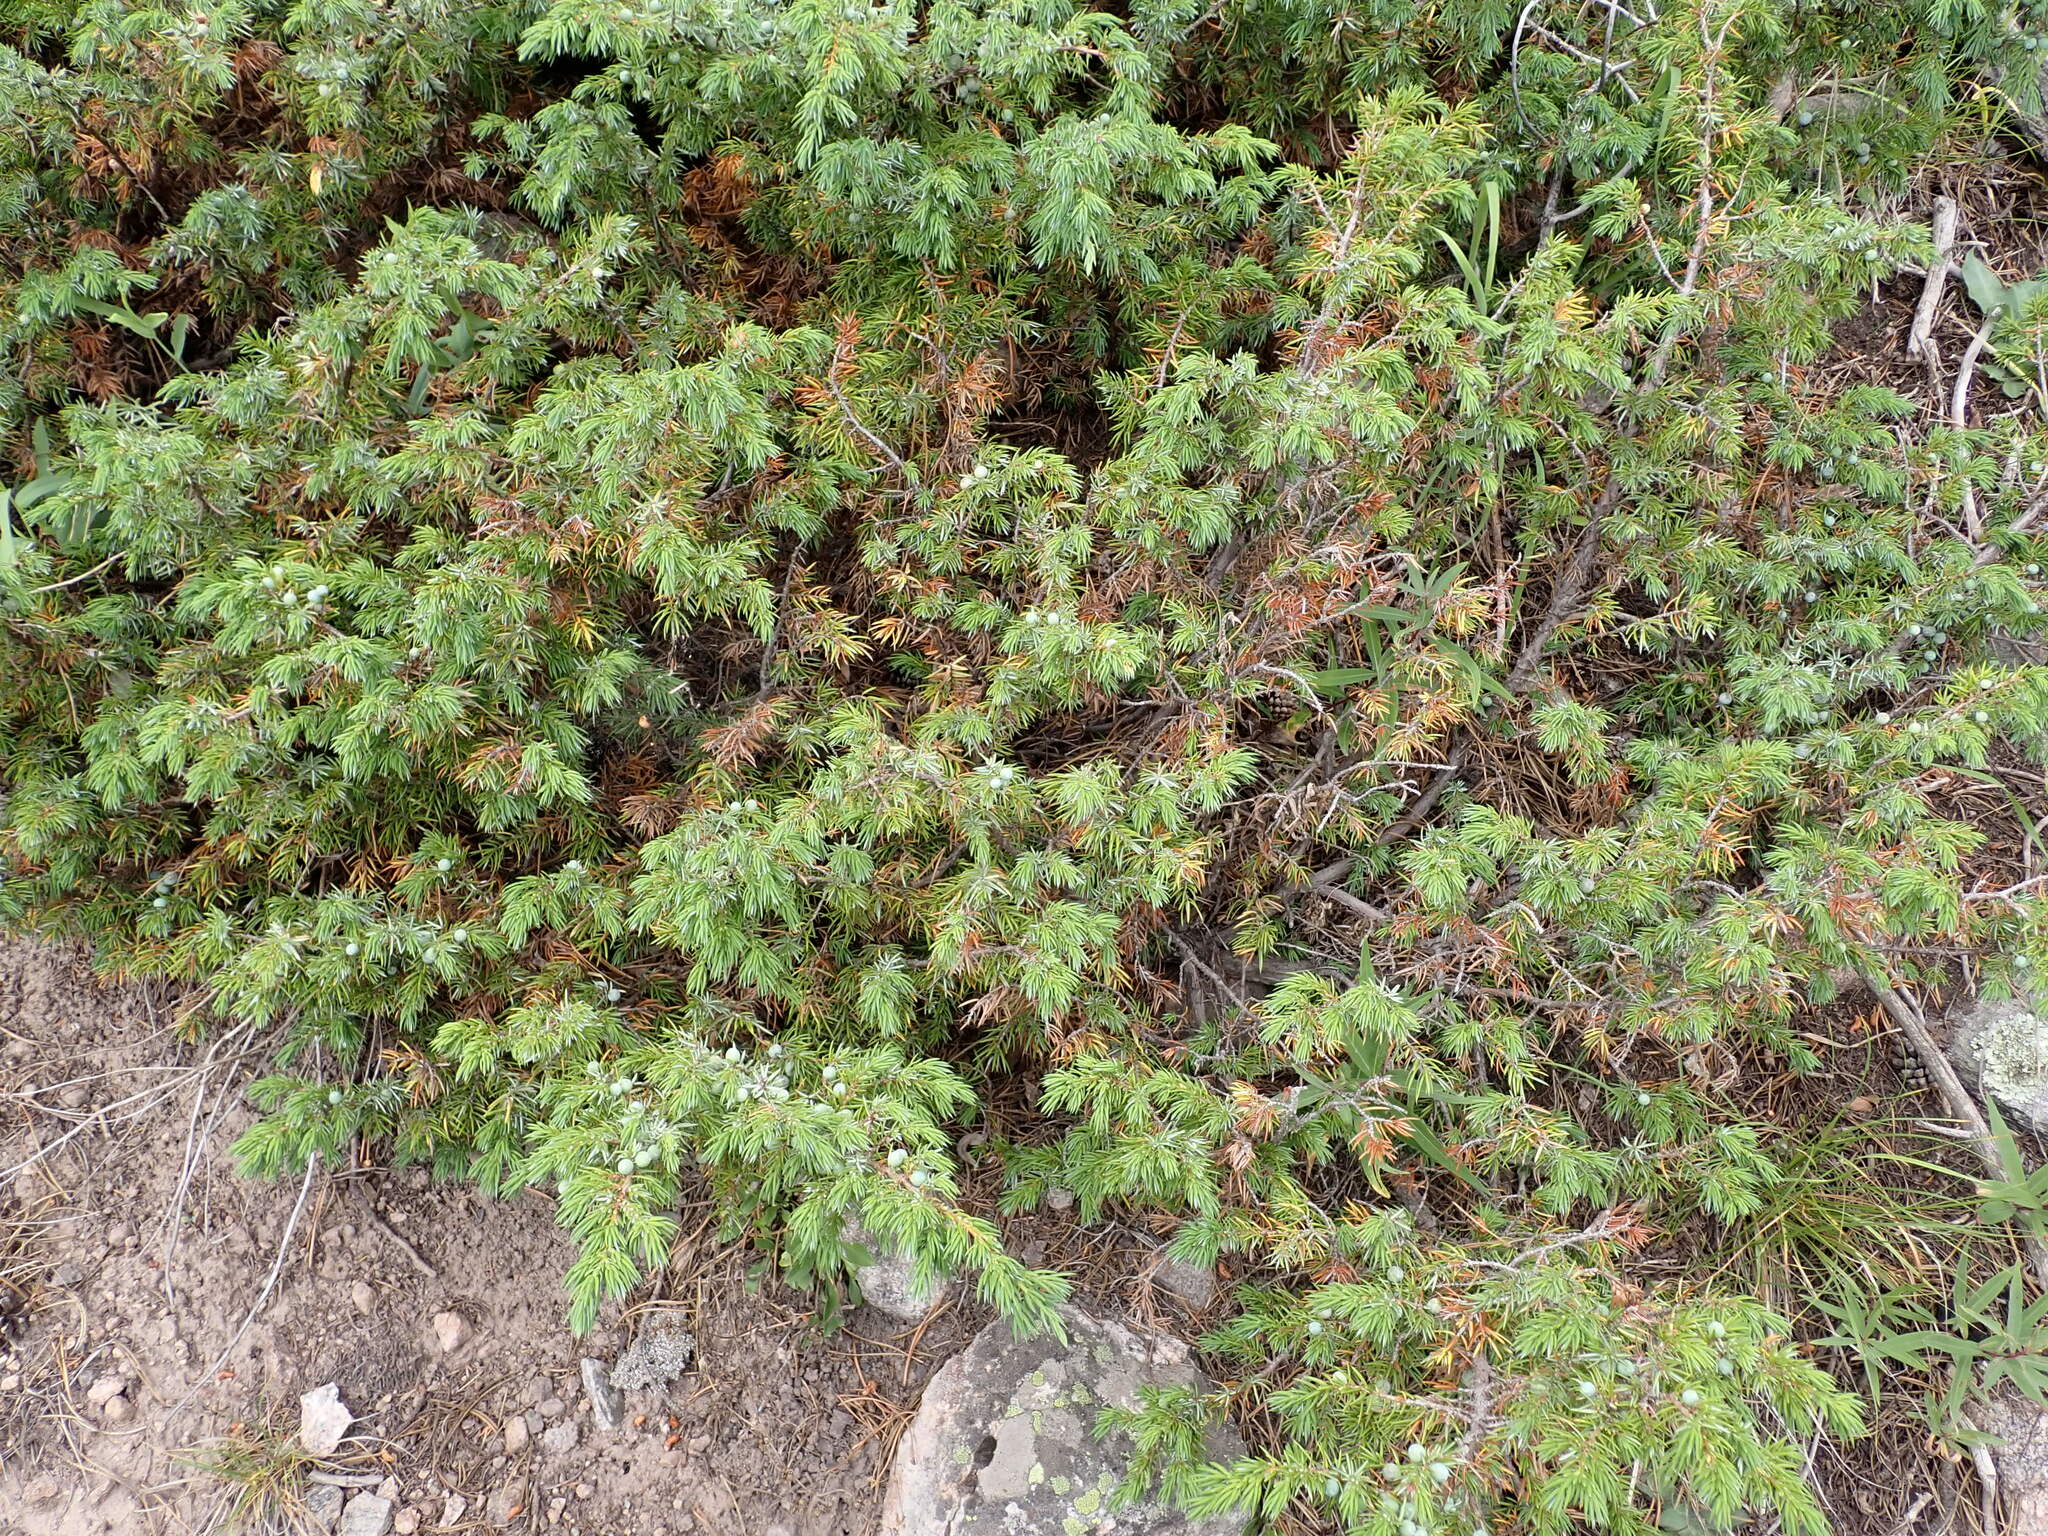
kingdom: Plantae
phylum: Tracheophyta
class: Pinopsida
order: Pinales
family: Cupressaceae
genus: Juniperus
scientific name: Juniperus communis
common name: Common juniper
